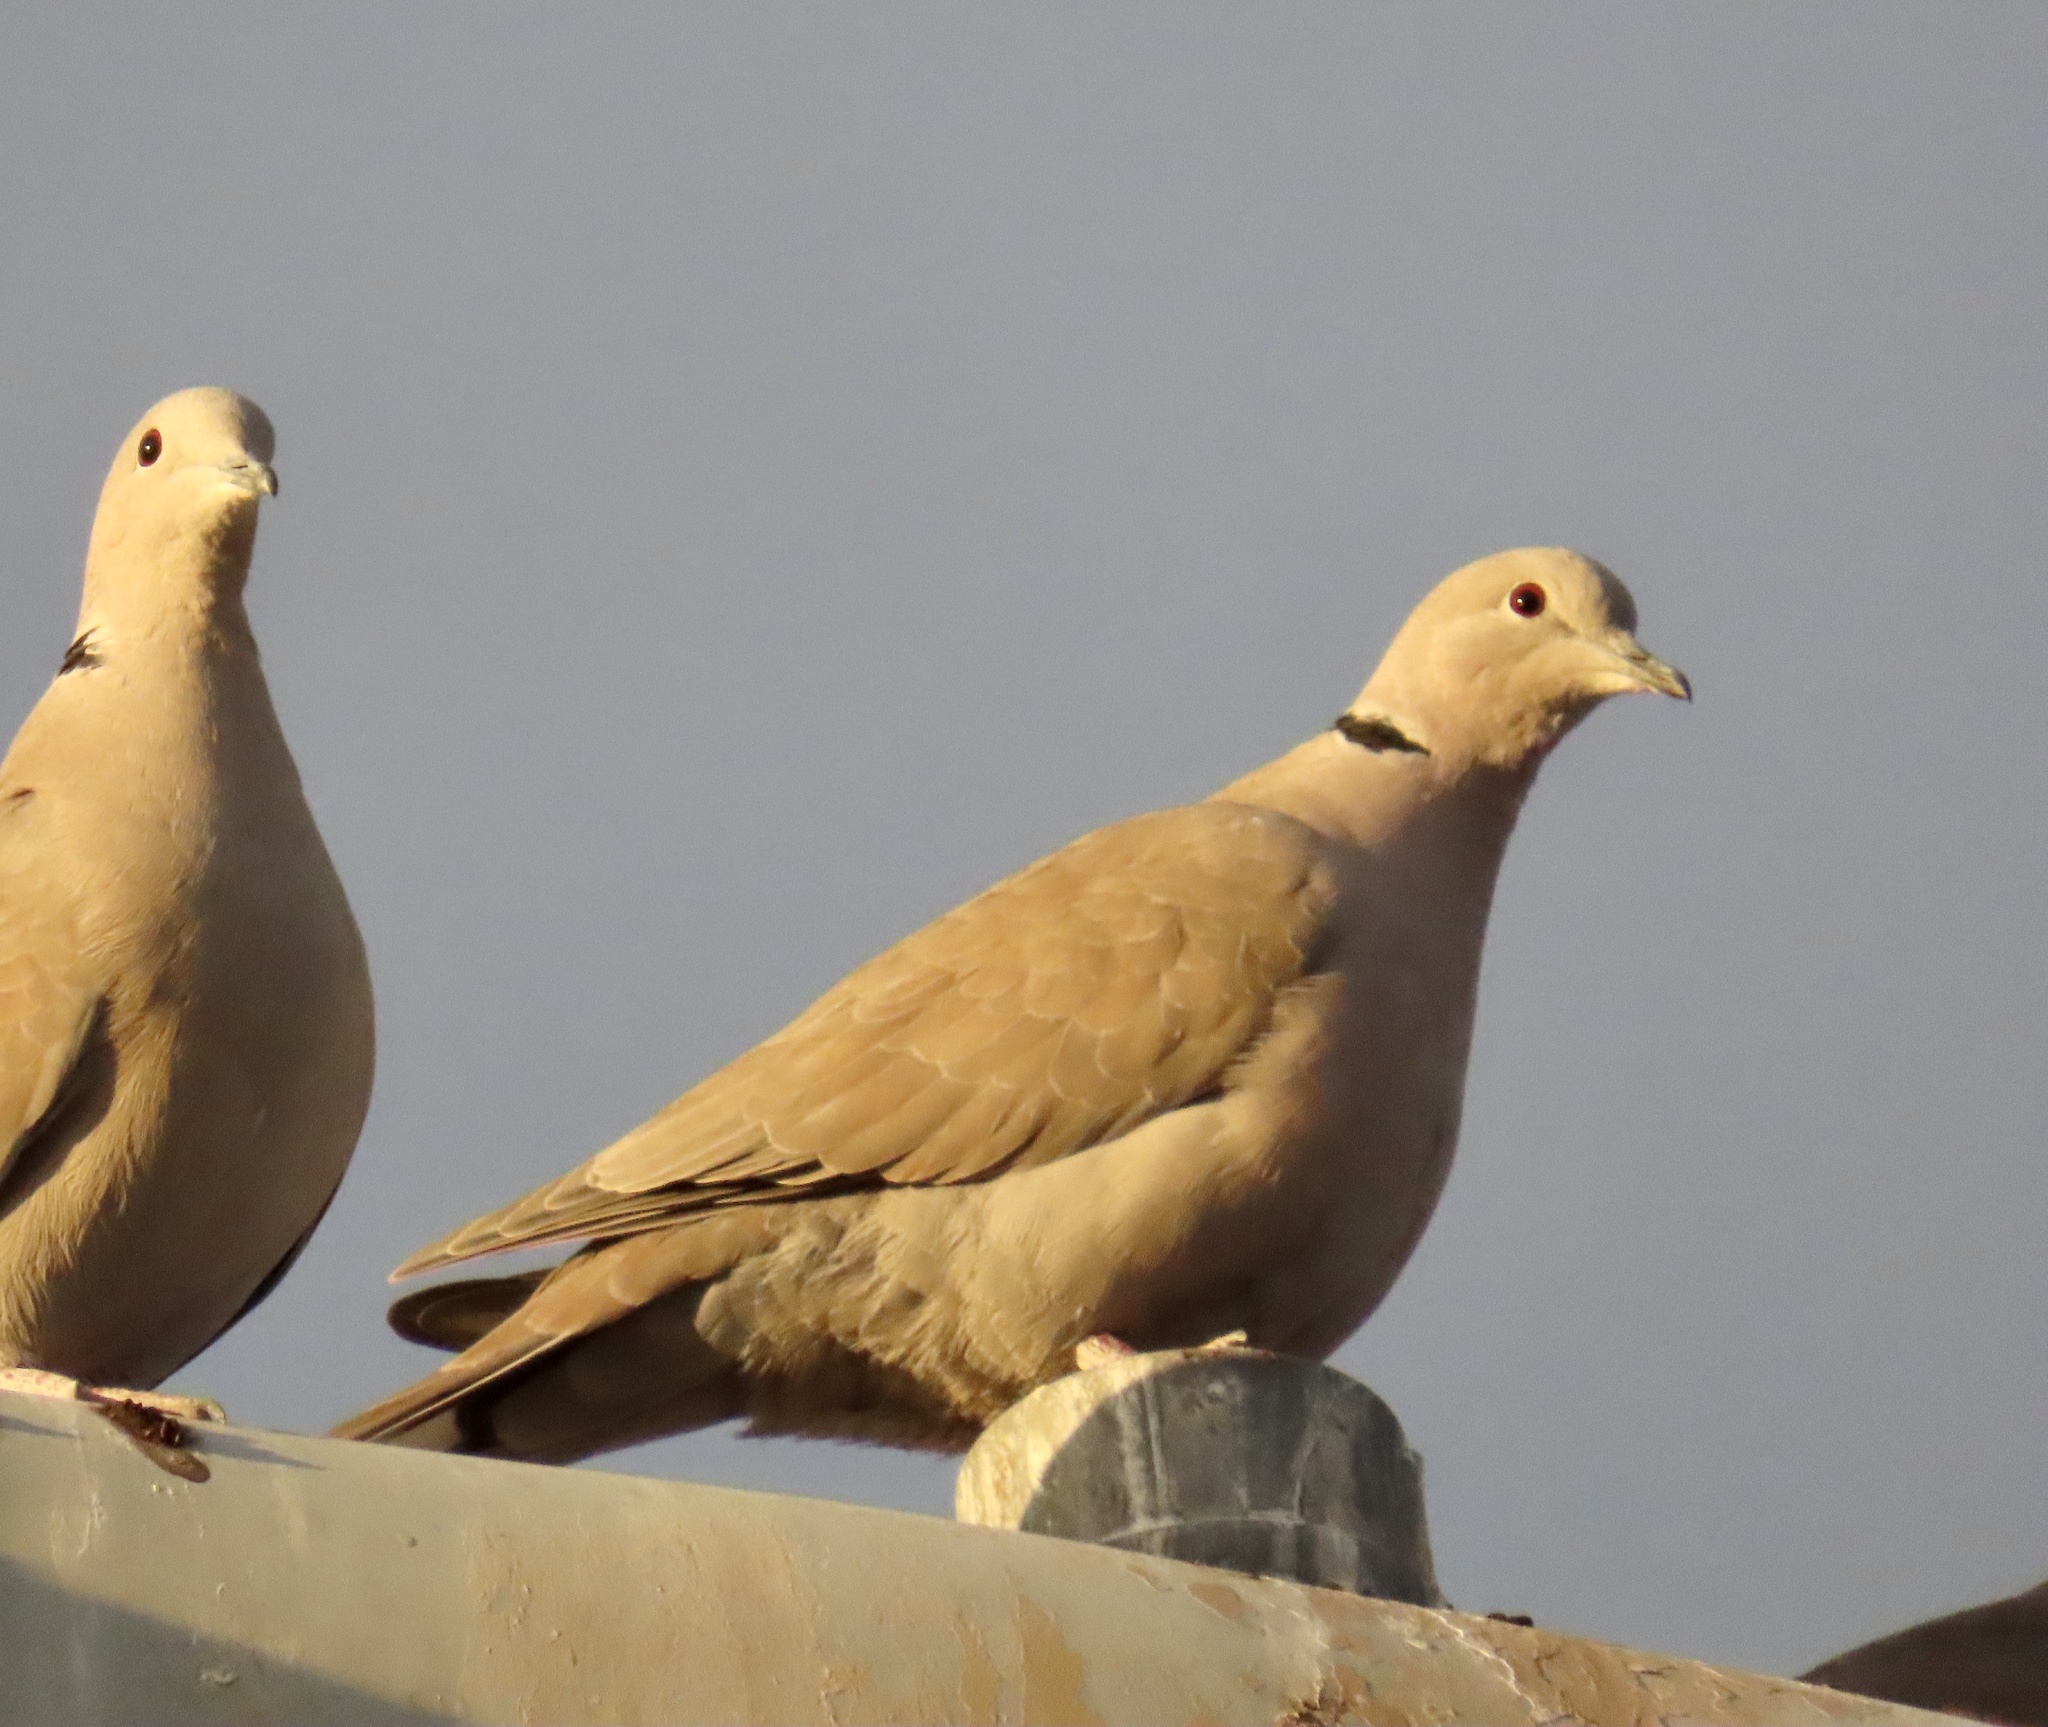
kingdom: Animalia
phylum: Chordata
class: Aves
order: Columbiformes
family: Columbidae
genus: Streptopelia
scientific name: Streptopelia decaocto
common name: Eurasian collared dove
